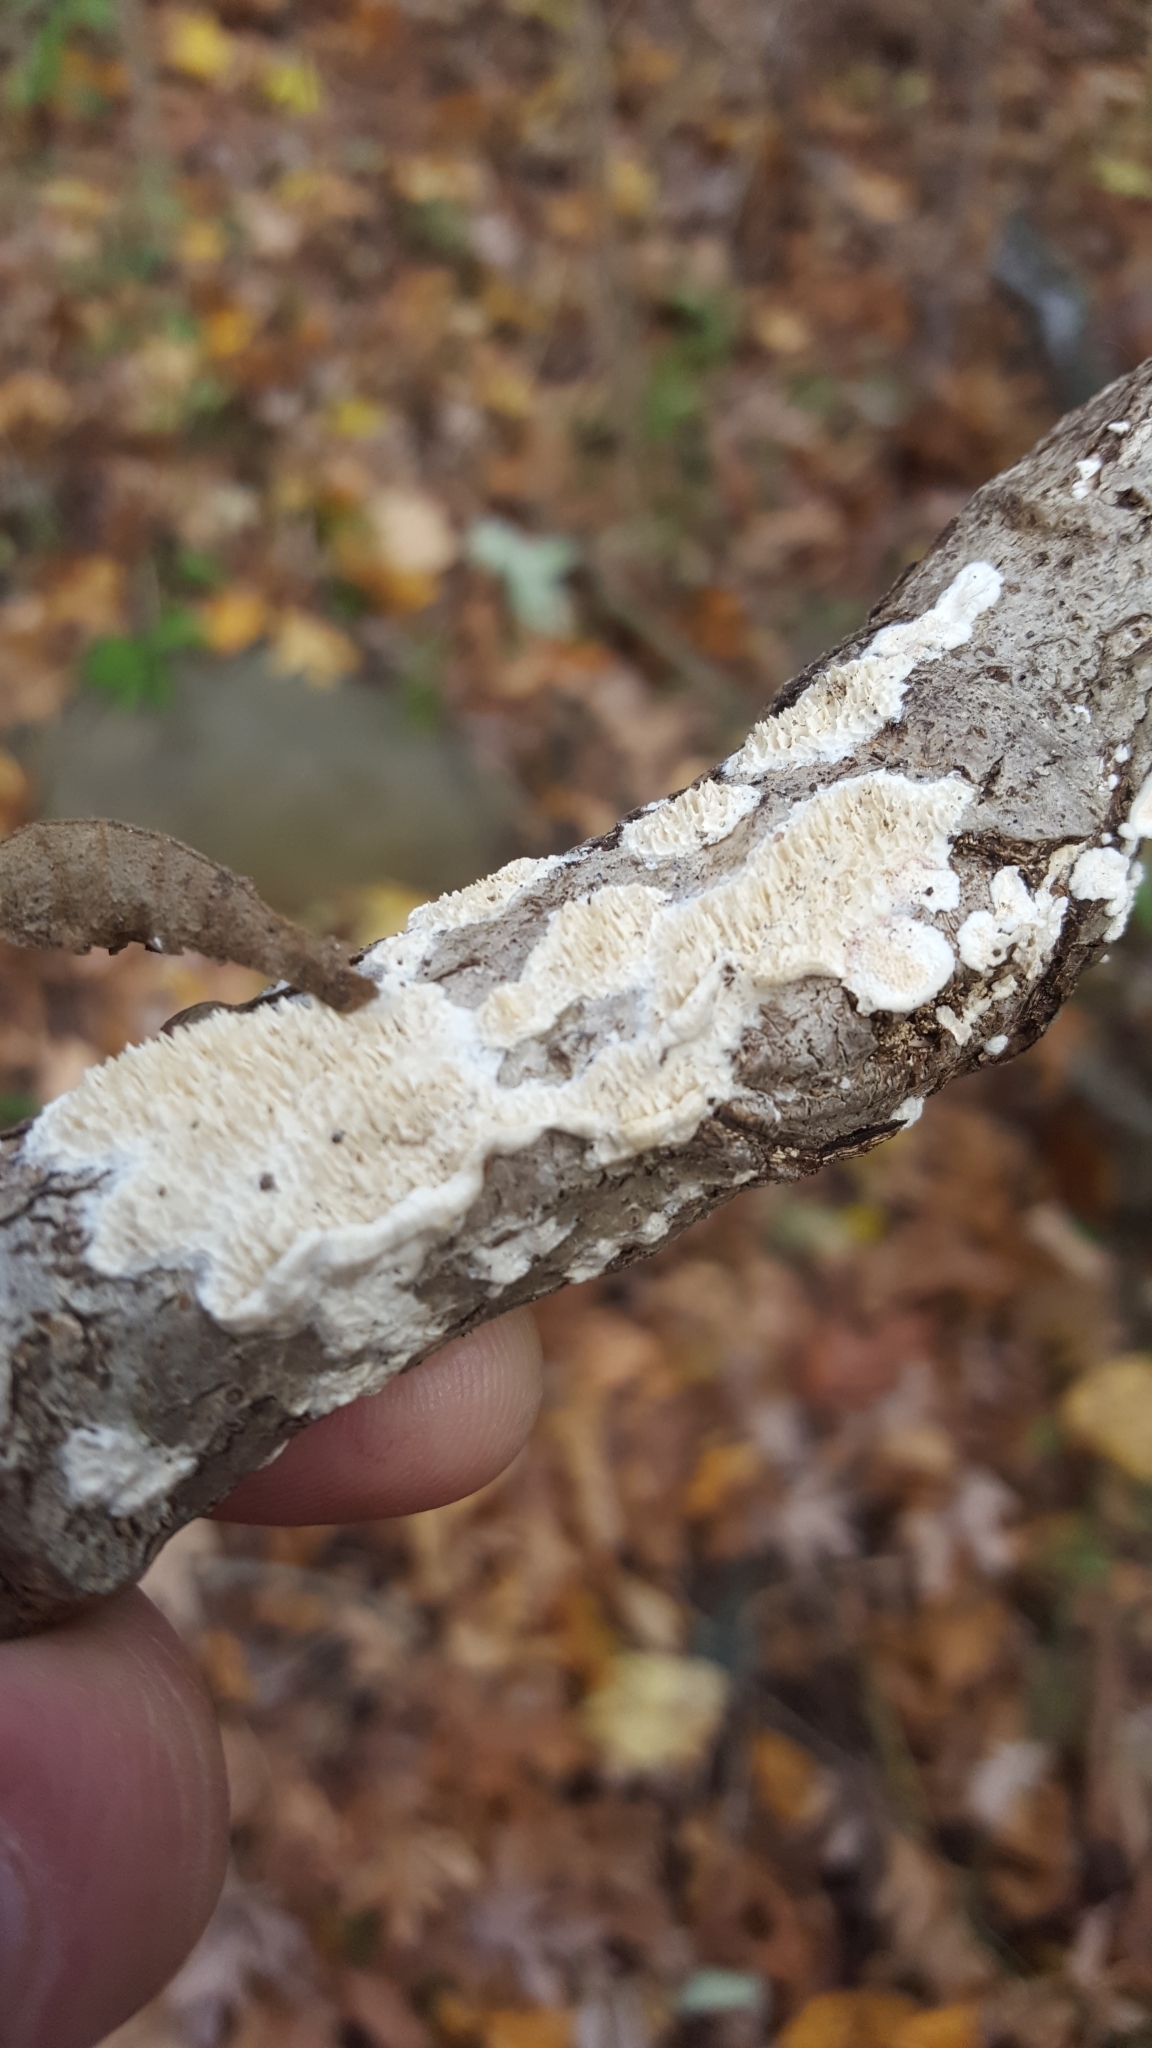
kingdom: Fungi
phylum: Basidiomycota
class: Agaricomycetes
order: Polyporales
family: Irpicaceae
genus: Irpex
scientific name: Irpex lacteus
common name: Milk-white toothed polypore
